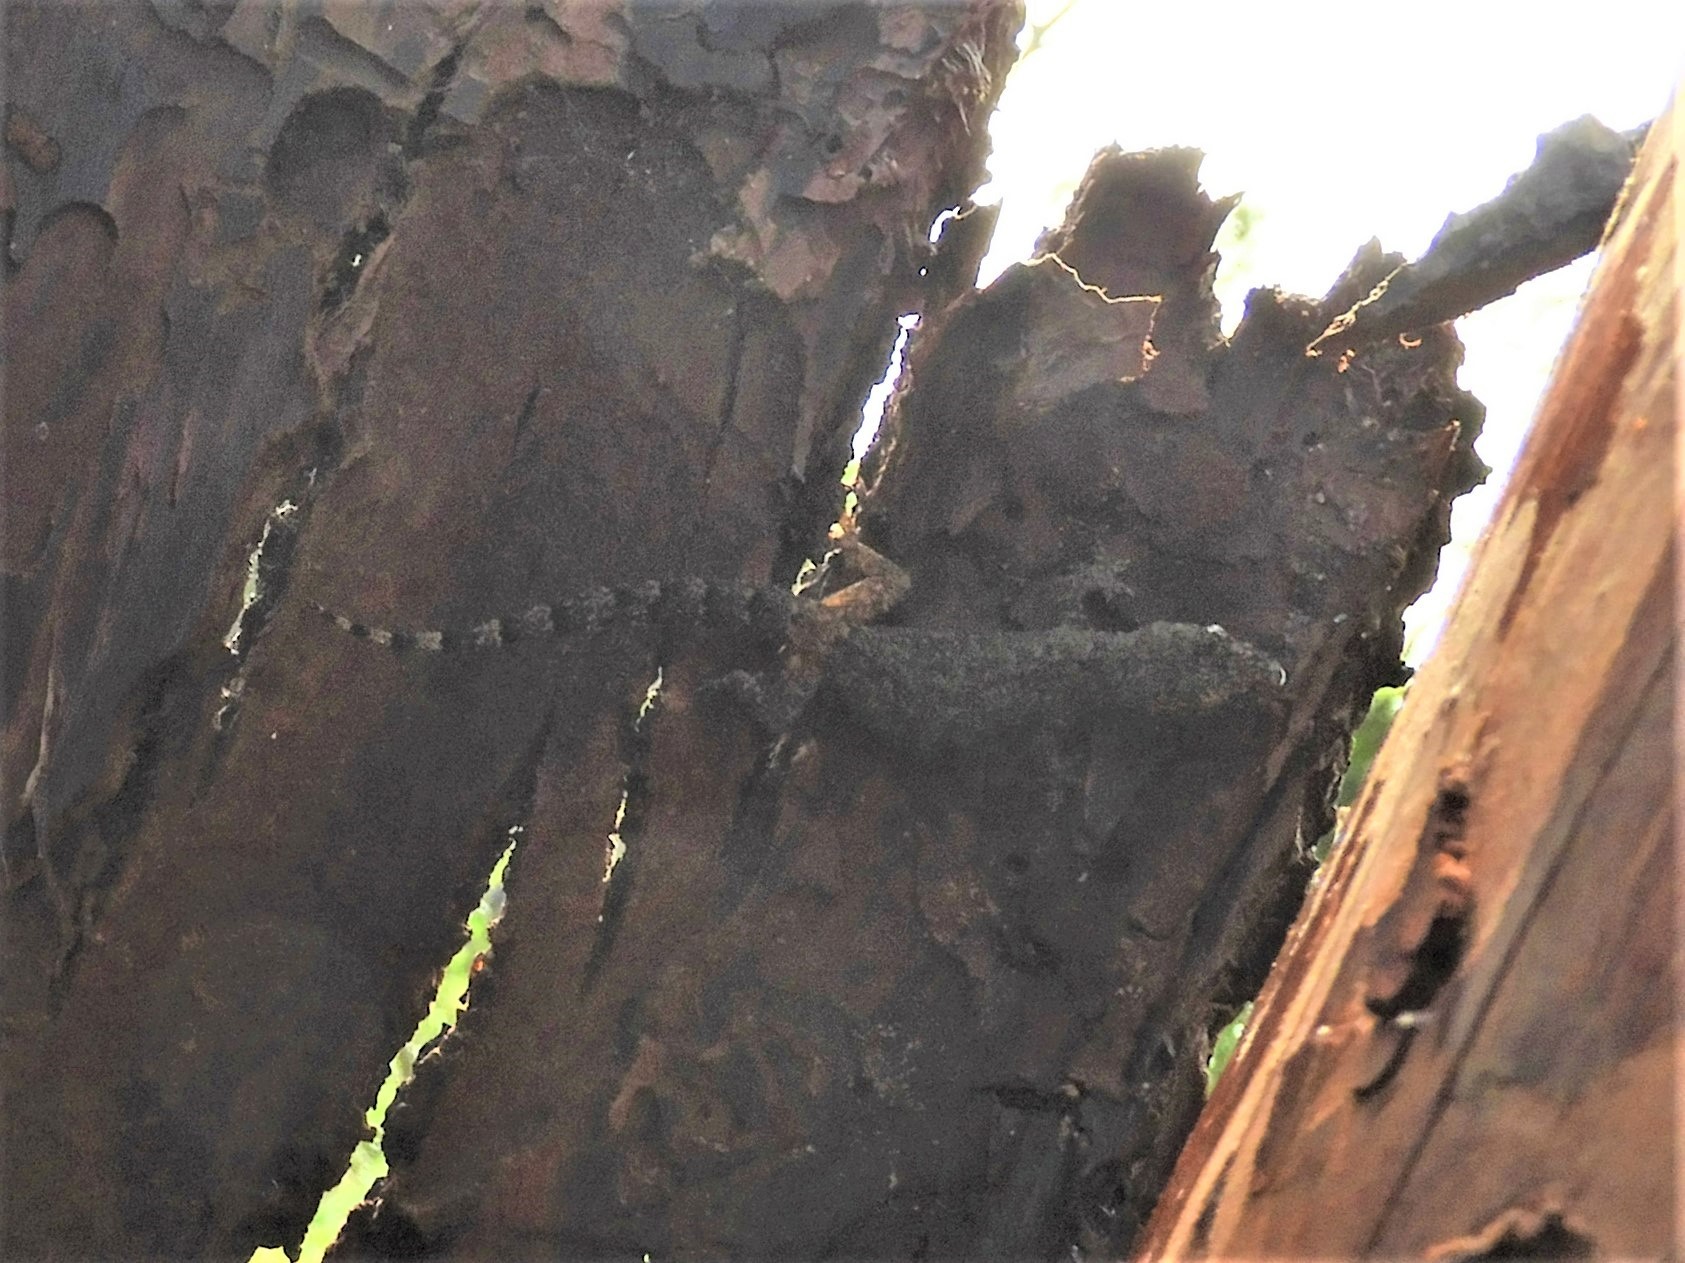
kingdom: Animalia
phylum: Chordata
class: Squamata
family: Gekkonidae
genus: Hemidactylus
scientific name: Hemidactylus mabouia
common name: House gecko
